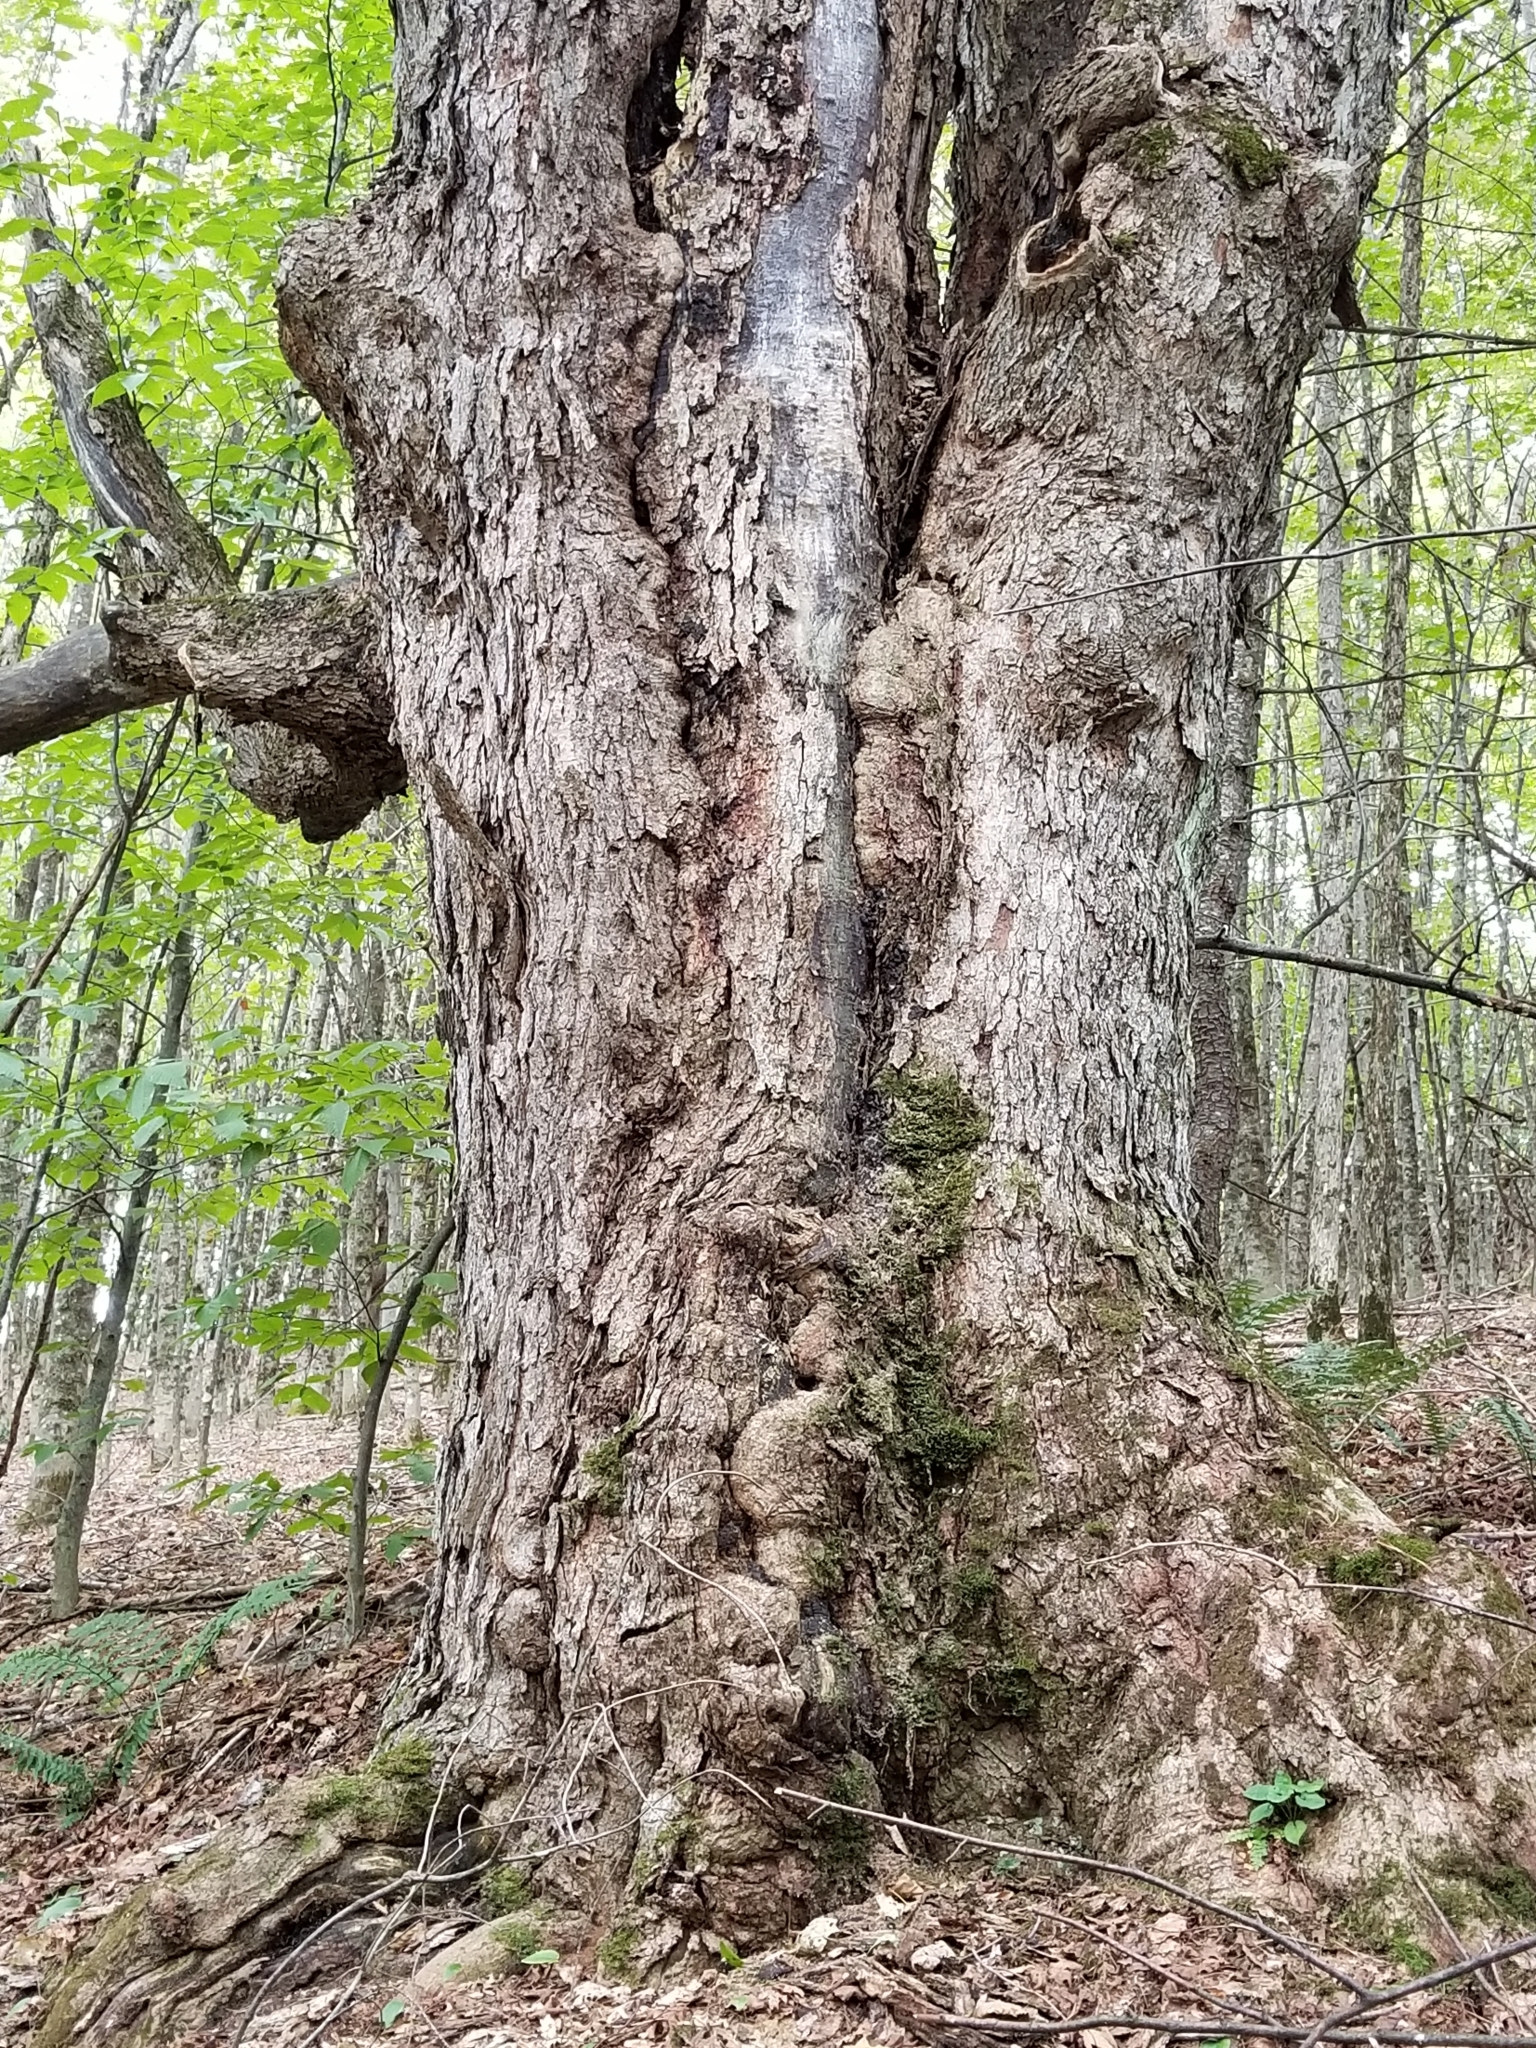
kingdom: Plantae
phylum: Tracheophyta
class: Magnoliopsida
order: Sapindales
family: Sapindaceae
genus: Acer
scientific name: Acer saccharum
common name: Sugar maple
